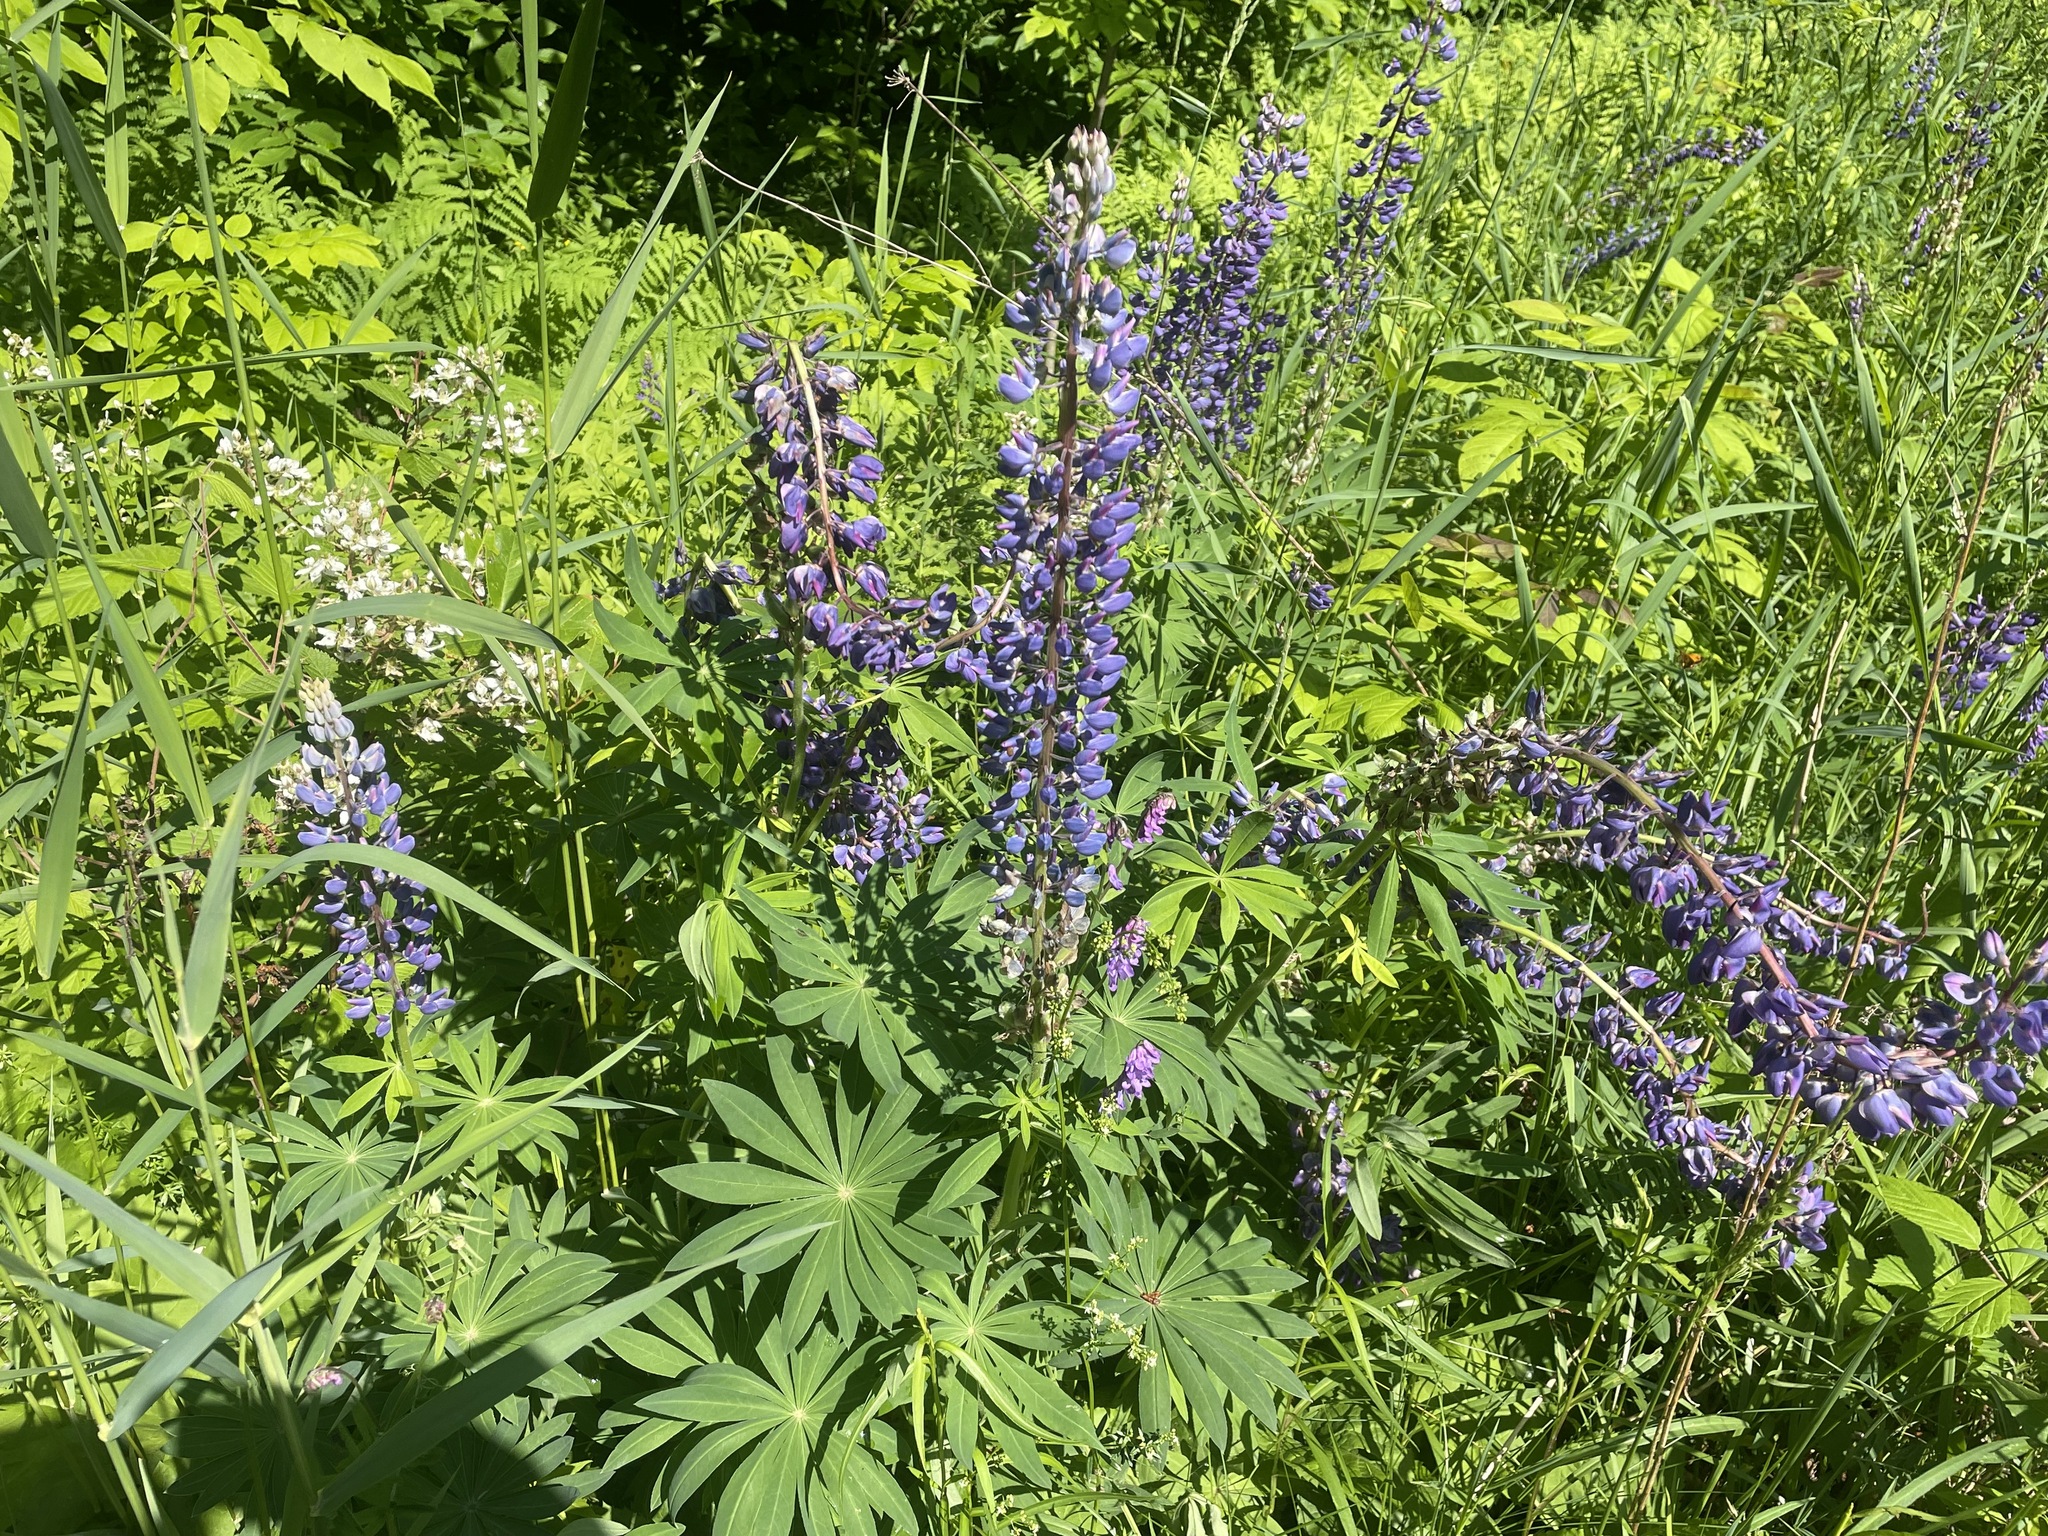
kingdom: Plantae
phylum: Tracheophyta
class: Magnoliopsida
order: Fabales
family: Fabaceae
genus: Lupinus
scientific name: Lupinus polyphyllus
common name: Garden lupin
